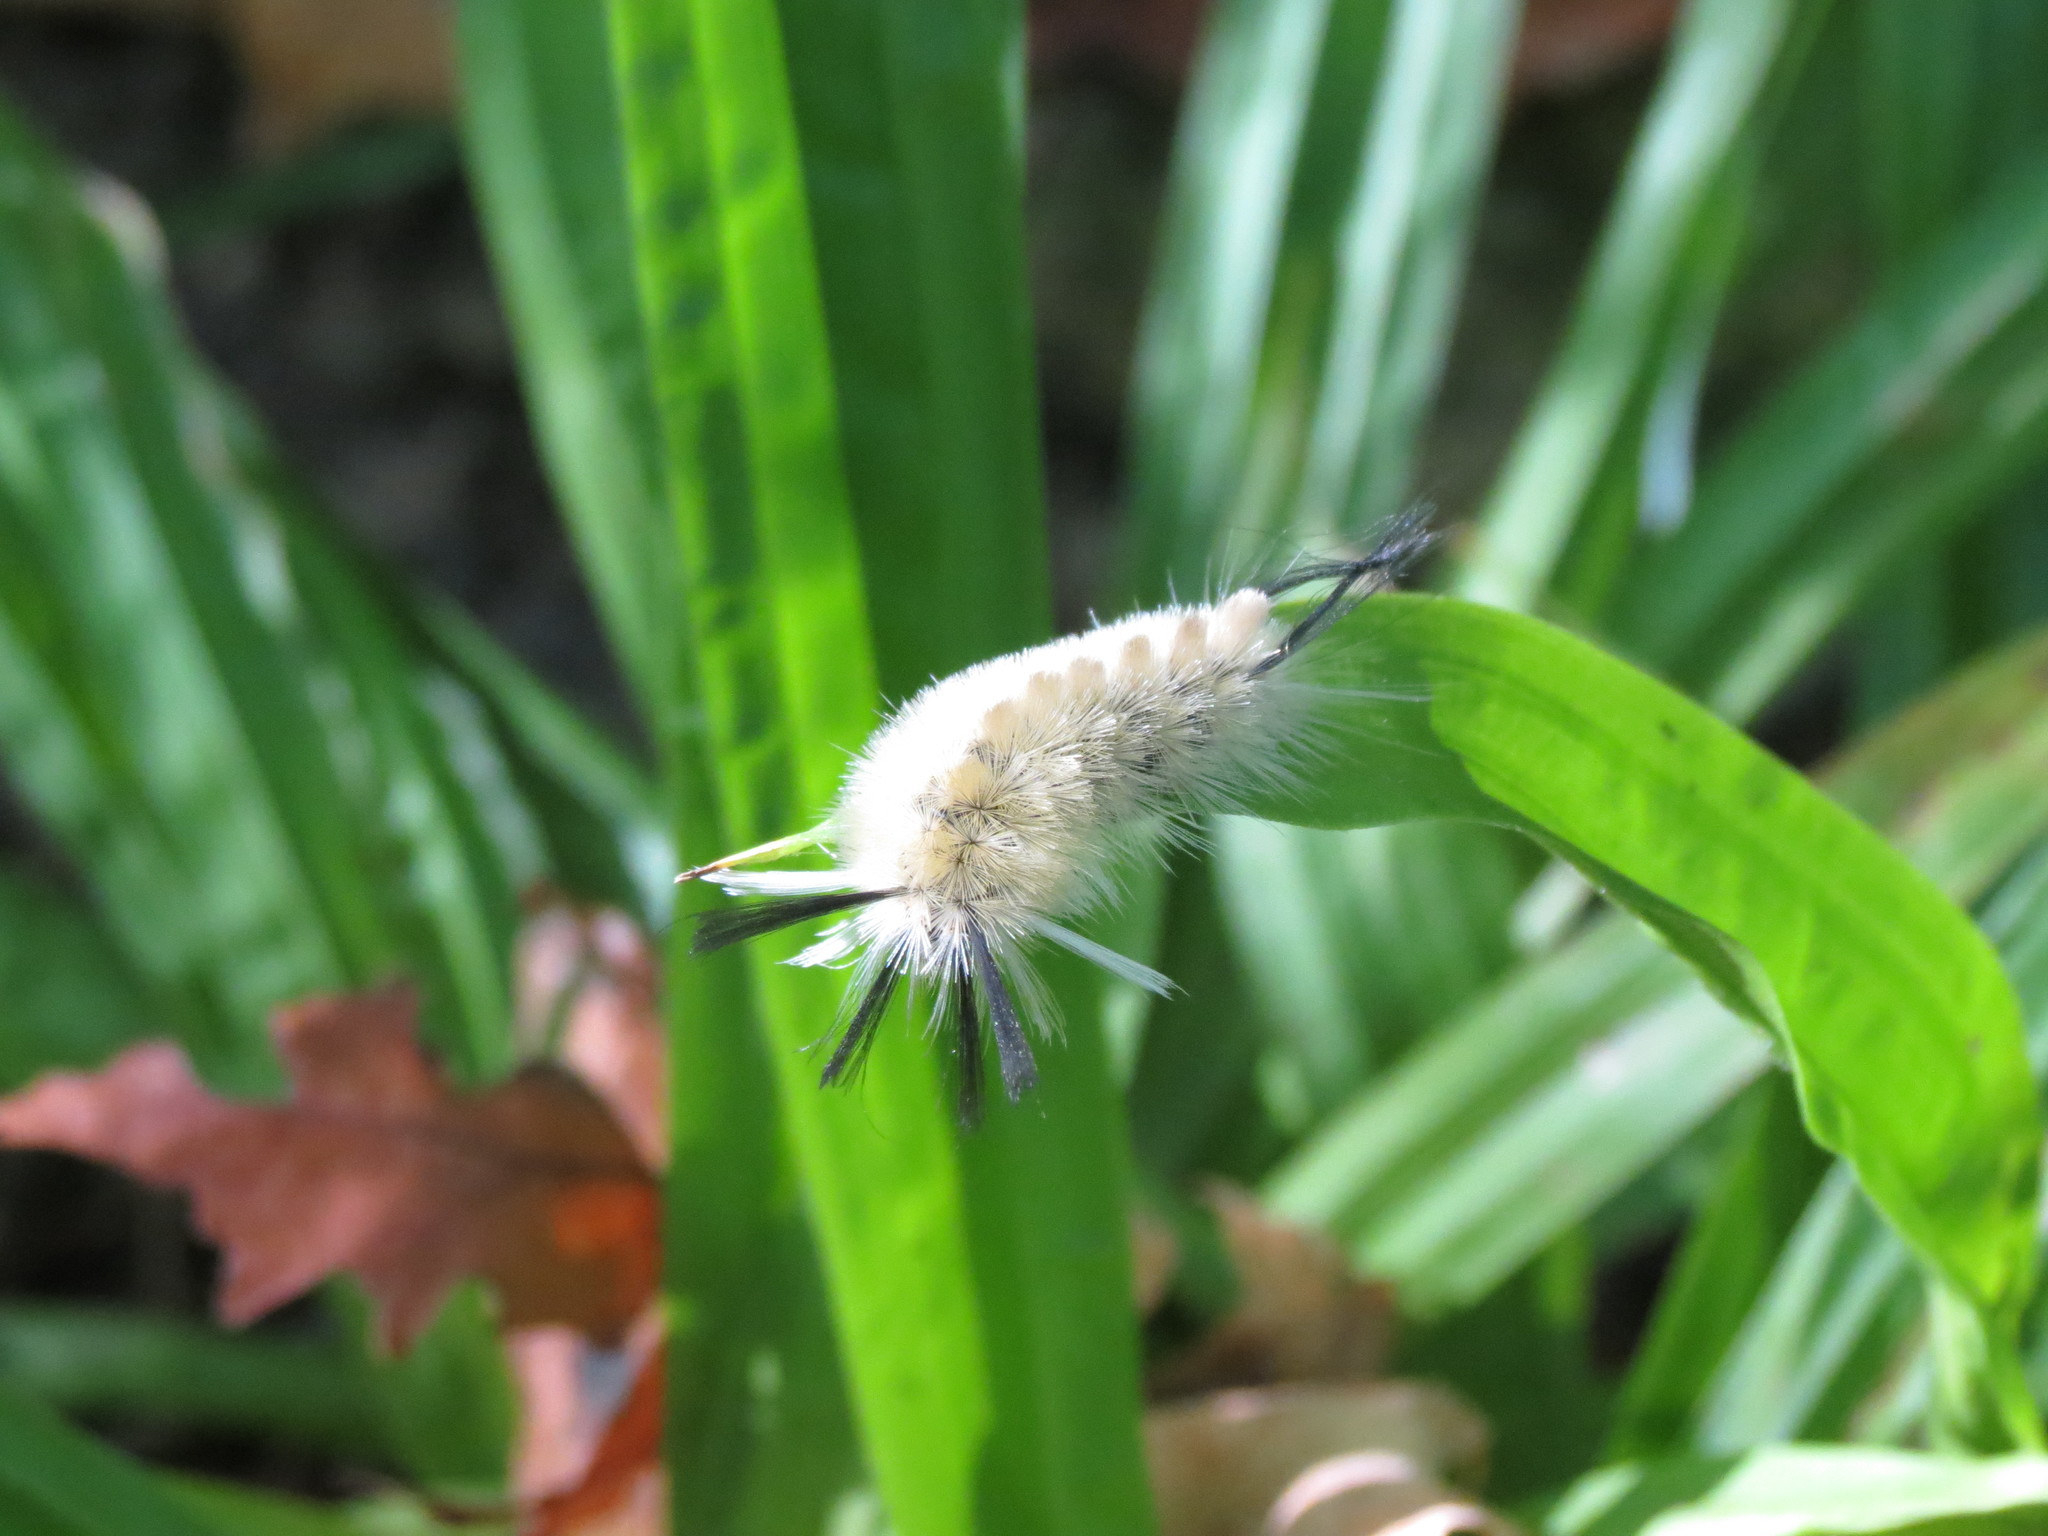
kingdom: Animalia
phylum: Arthropoda
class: Insecta
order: Lepidoptera
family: Erebidae
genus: Halysidota
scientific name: Halysidota tessellaris
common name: Banded tussock moth
